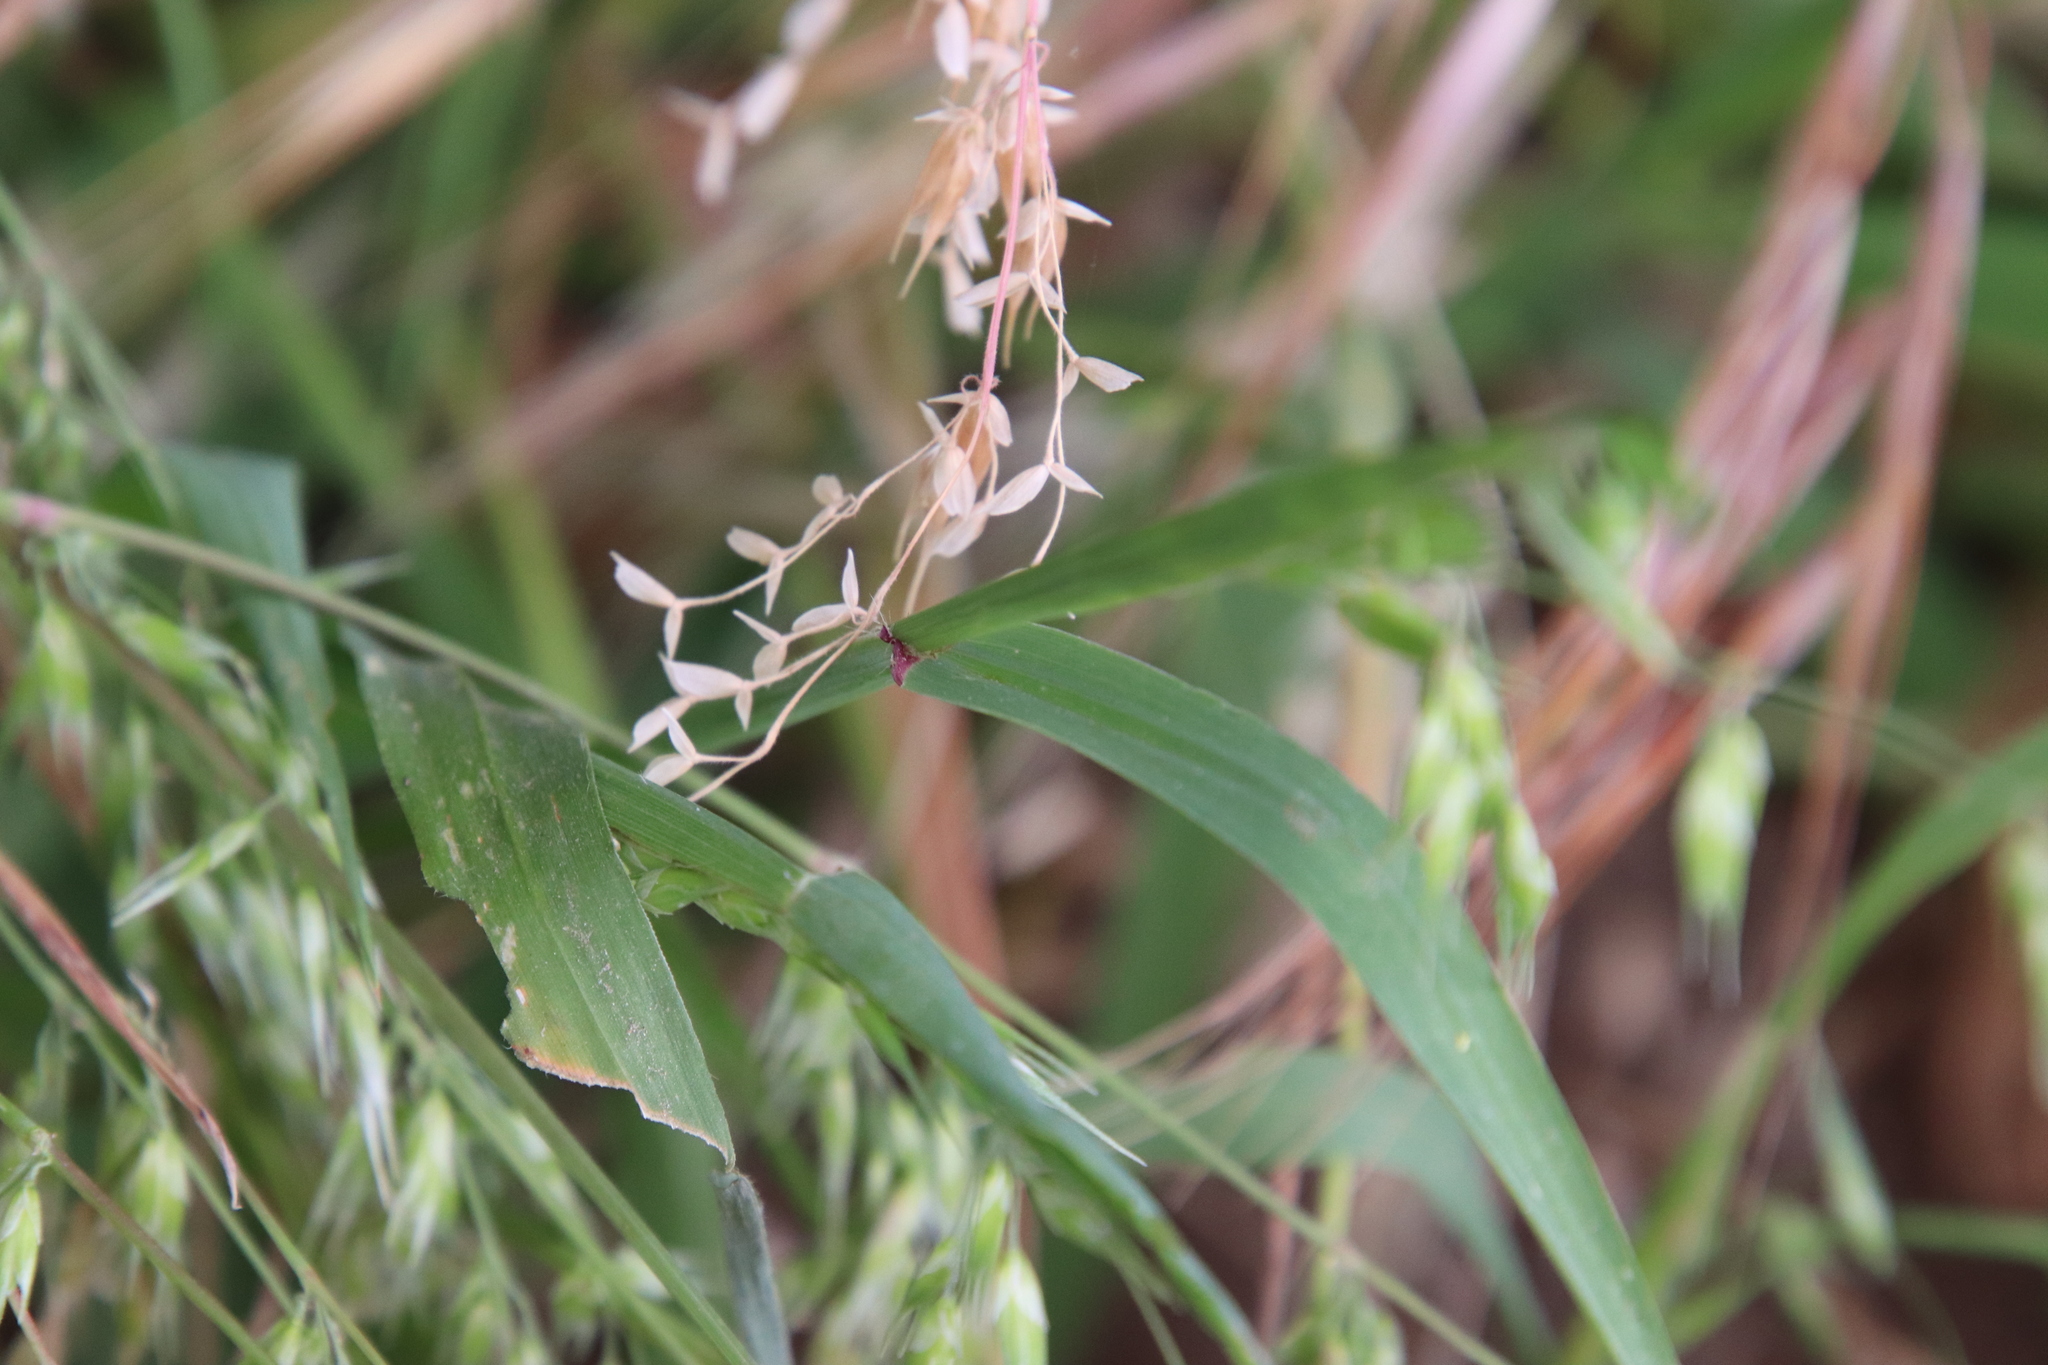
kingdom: Plantae
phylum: Tracheophyta
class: Liliopsida
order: Poales
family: Poaceae
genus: Ehrharta
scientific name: Ehrharta longiflora
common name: Longflowered veldtgrass
